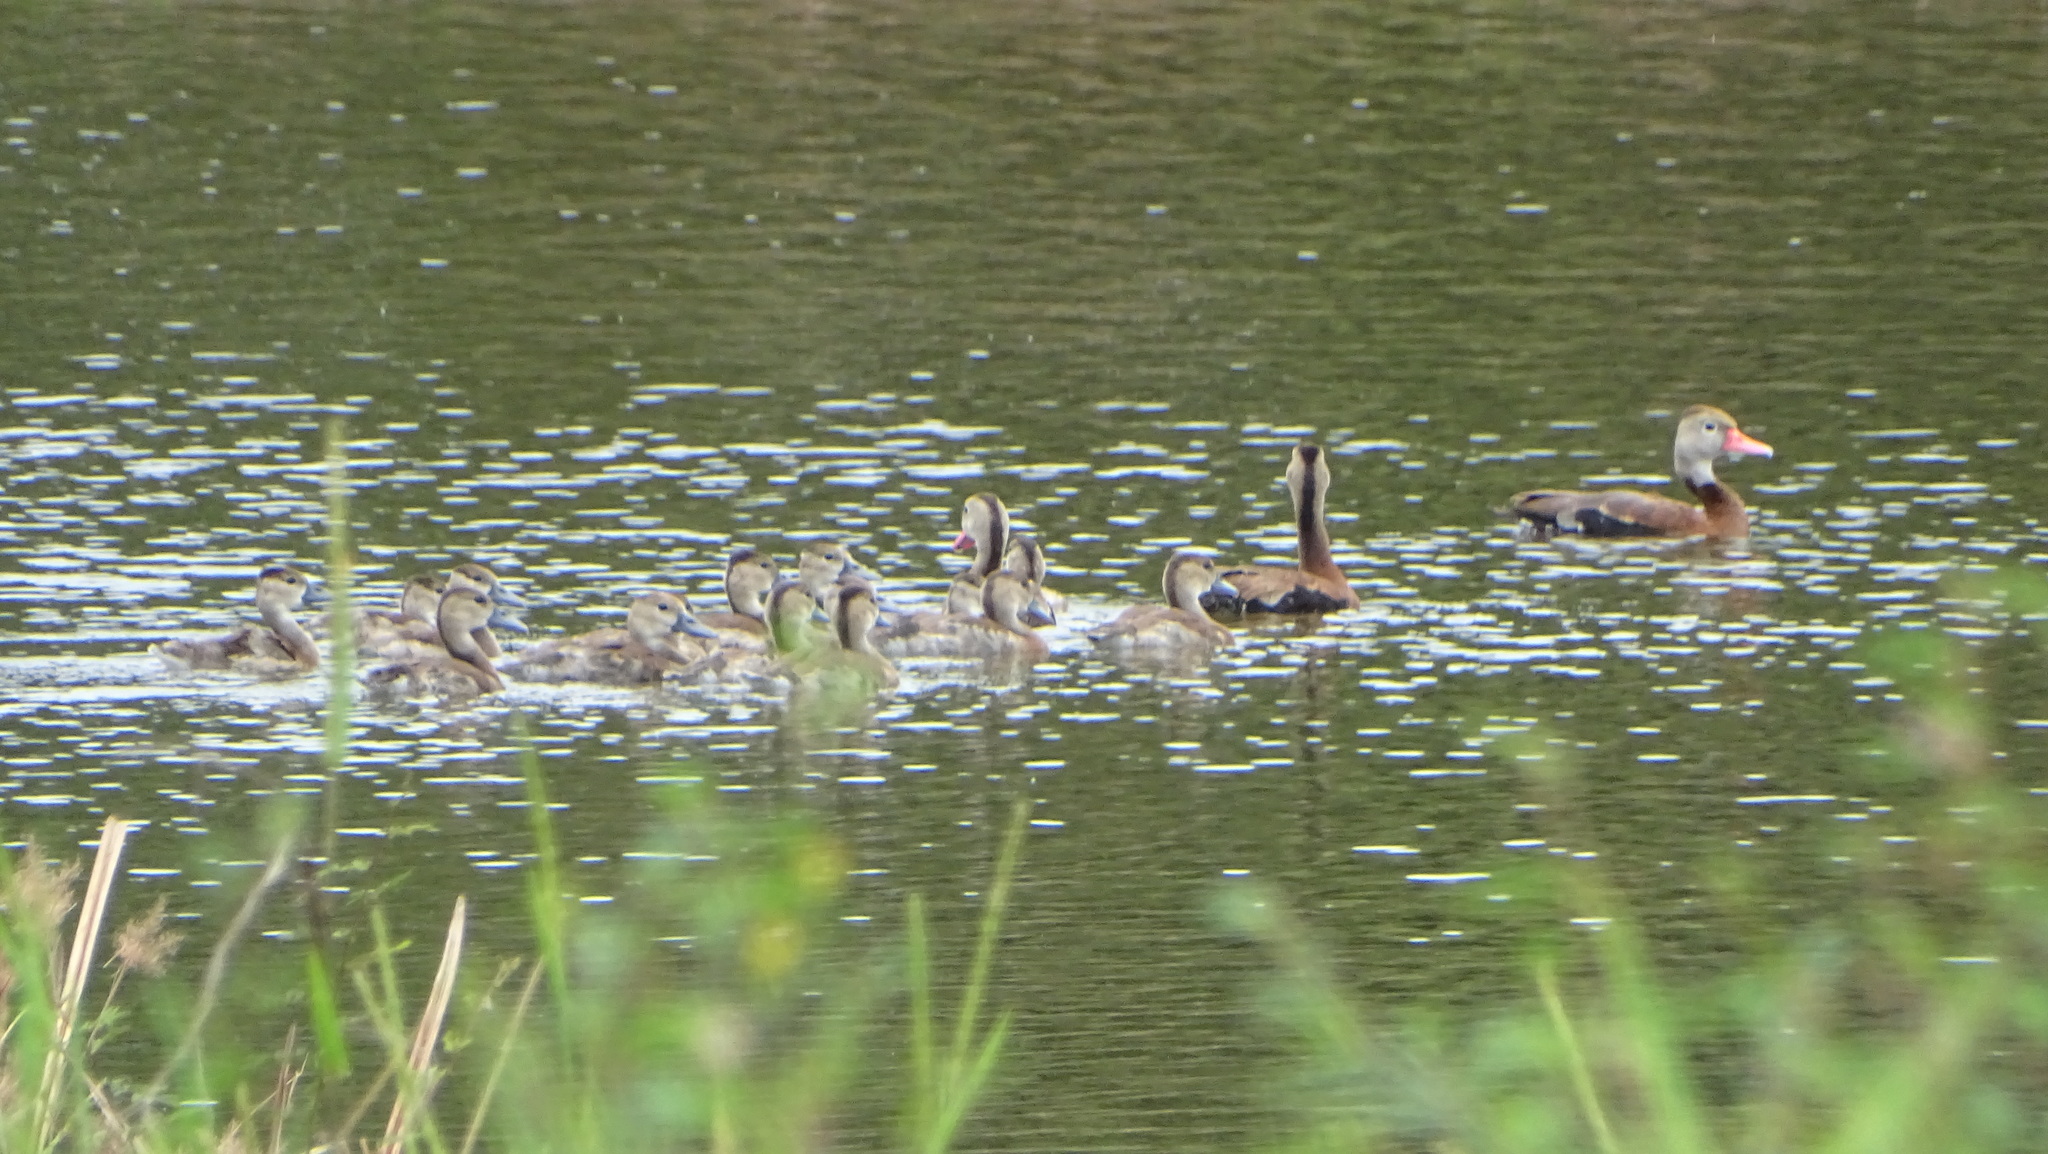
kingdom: Animalia
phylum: Chordata
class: Aves
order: Anseriformes
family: Anatidae
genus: Dendrocygna
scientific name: Dendrocygna autumnalis
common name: Black-bellied whistling duck
